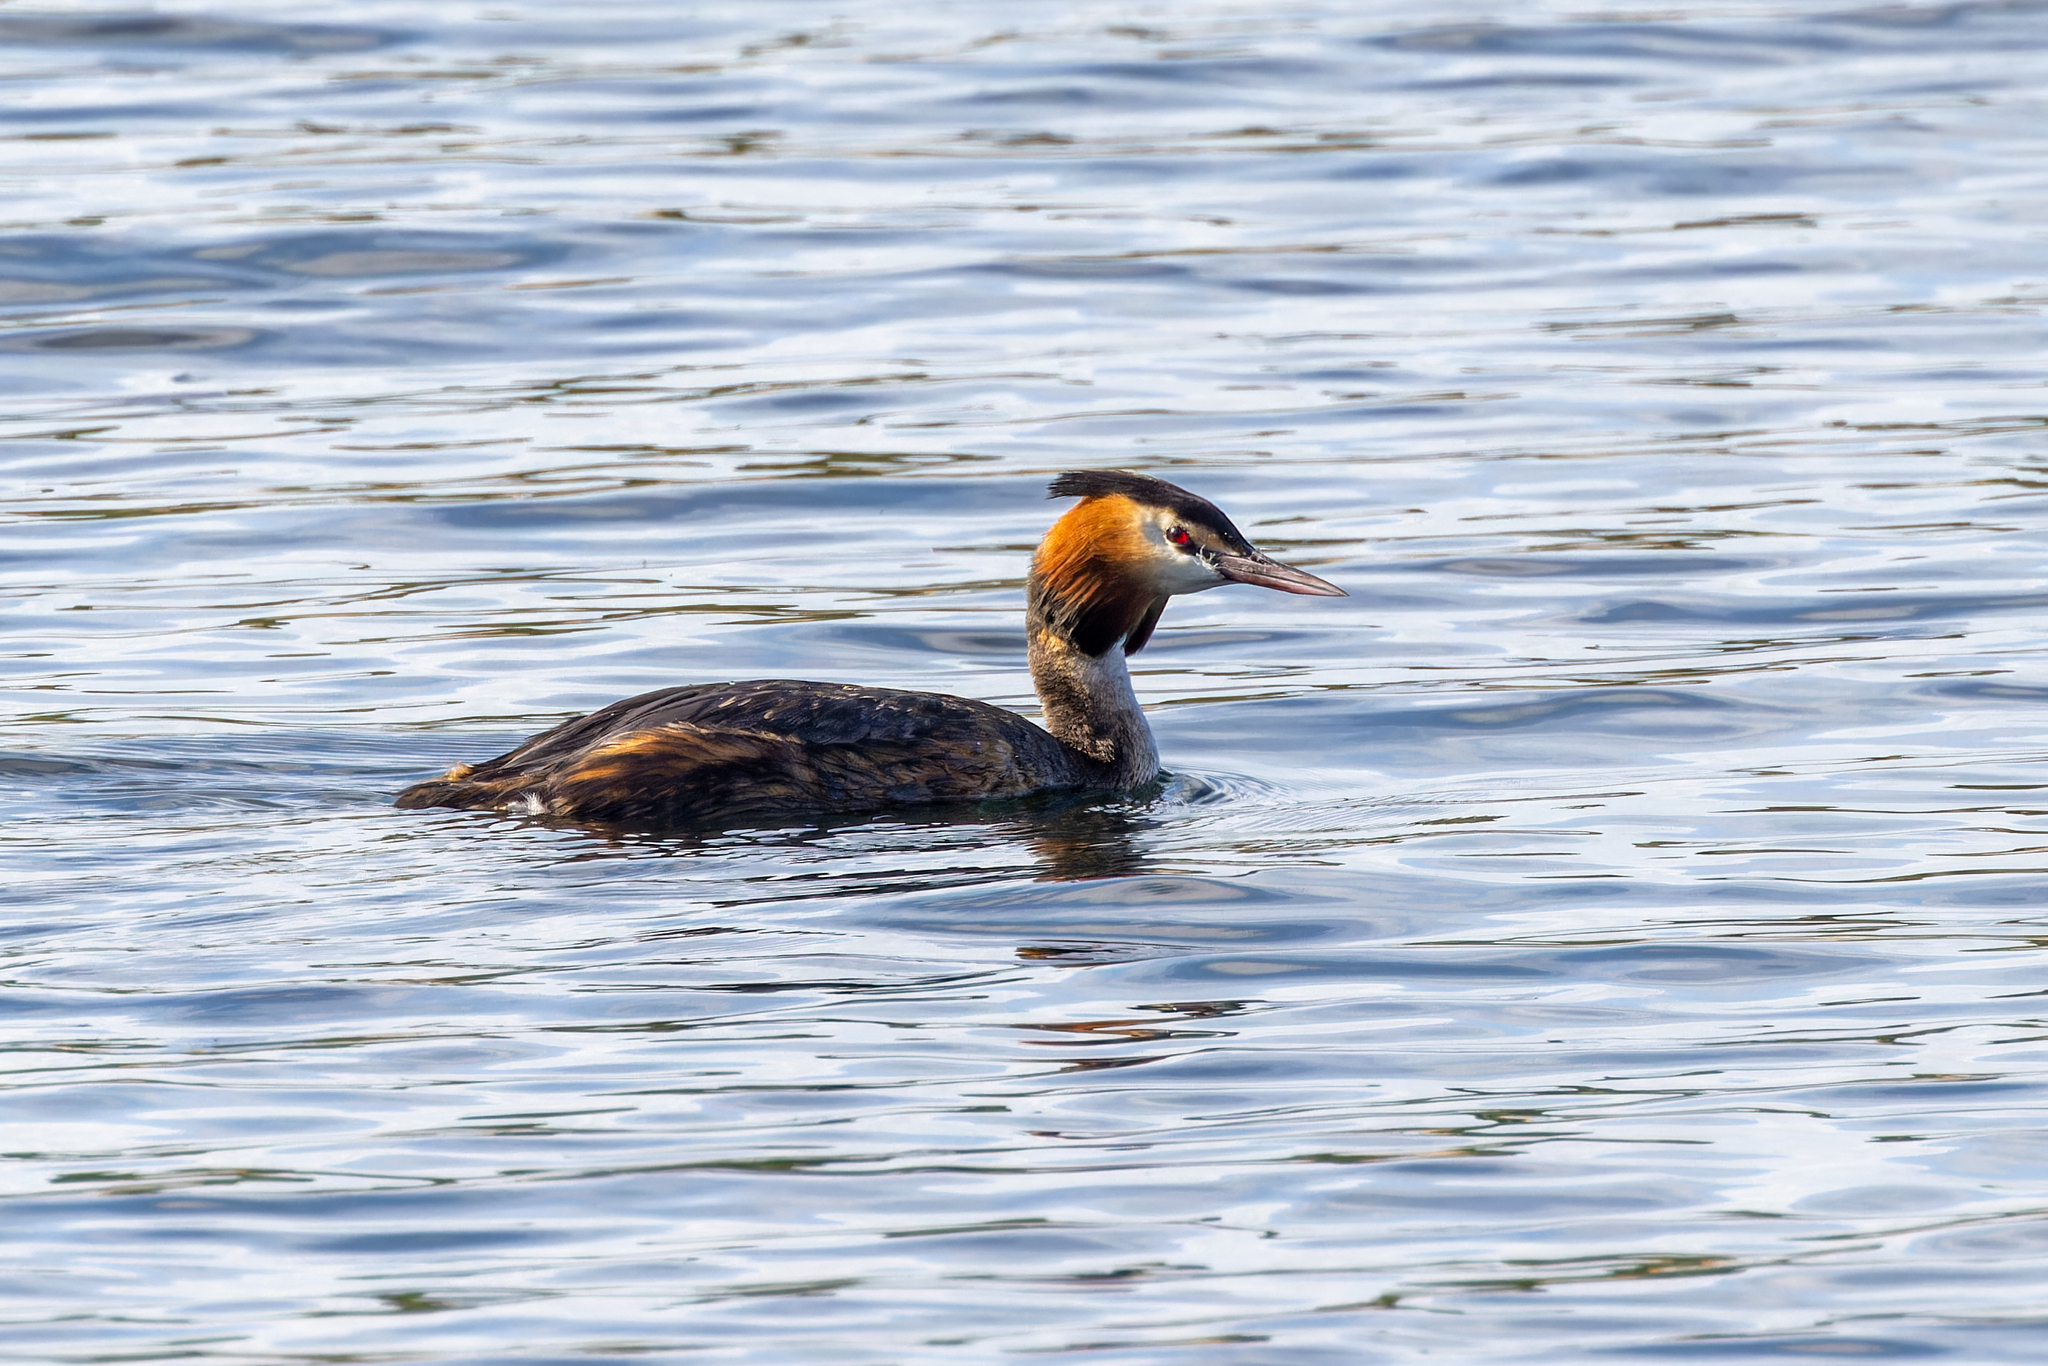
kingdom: Animalia
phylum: Chordata
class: Aves
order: Podicipediformes
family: Podicipedidae
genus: Podiceps
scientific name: Podiceps cristatus
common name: Great crested grebe
